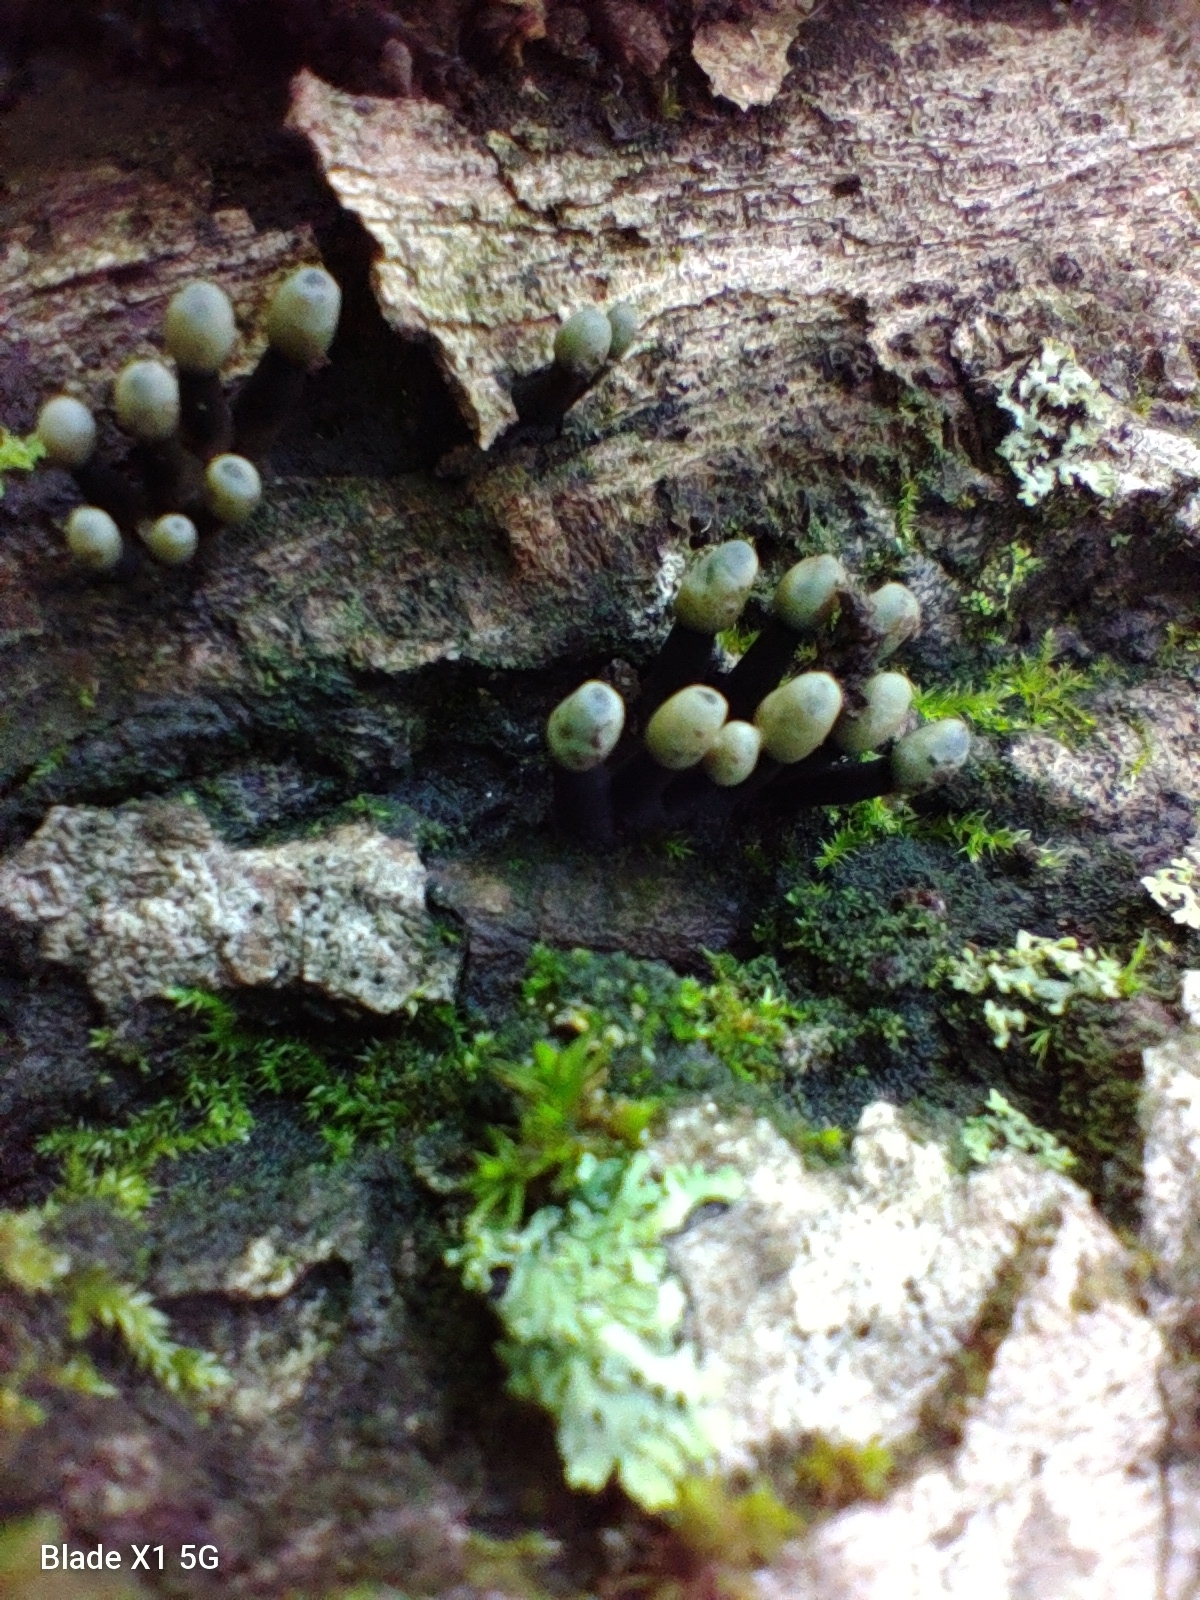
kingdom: Fungi
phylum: Ascomycota
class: Leotiomycetes
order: Helotiales
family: Bulgariaceae
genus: Holwaya
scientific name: Holwaya mucida
